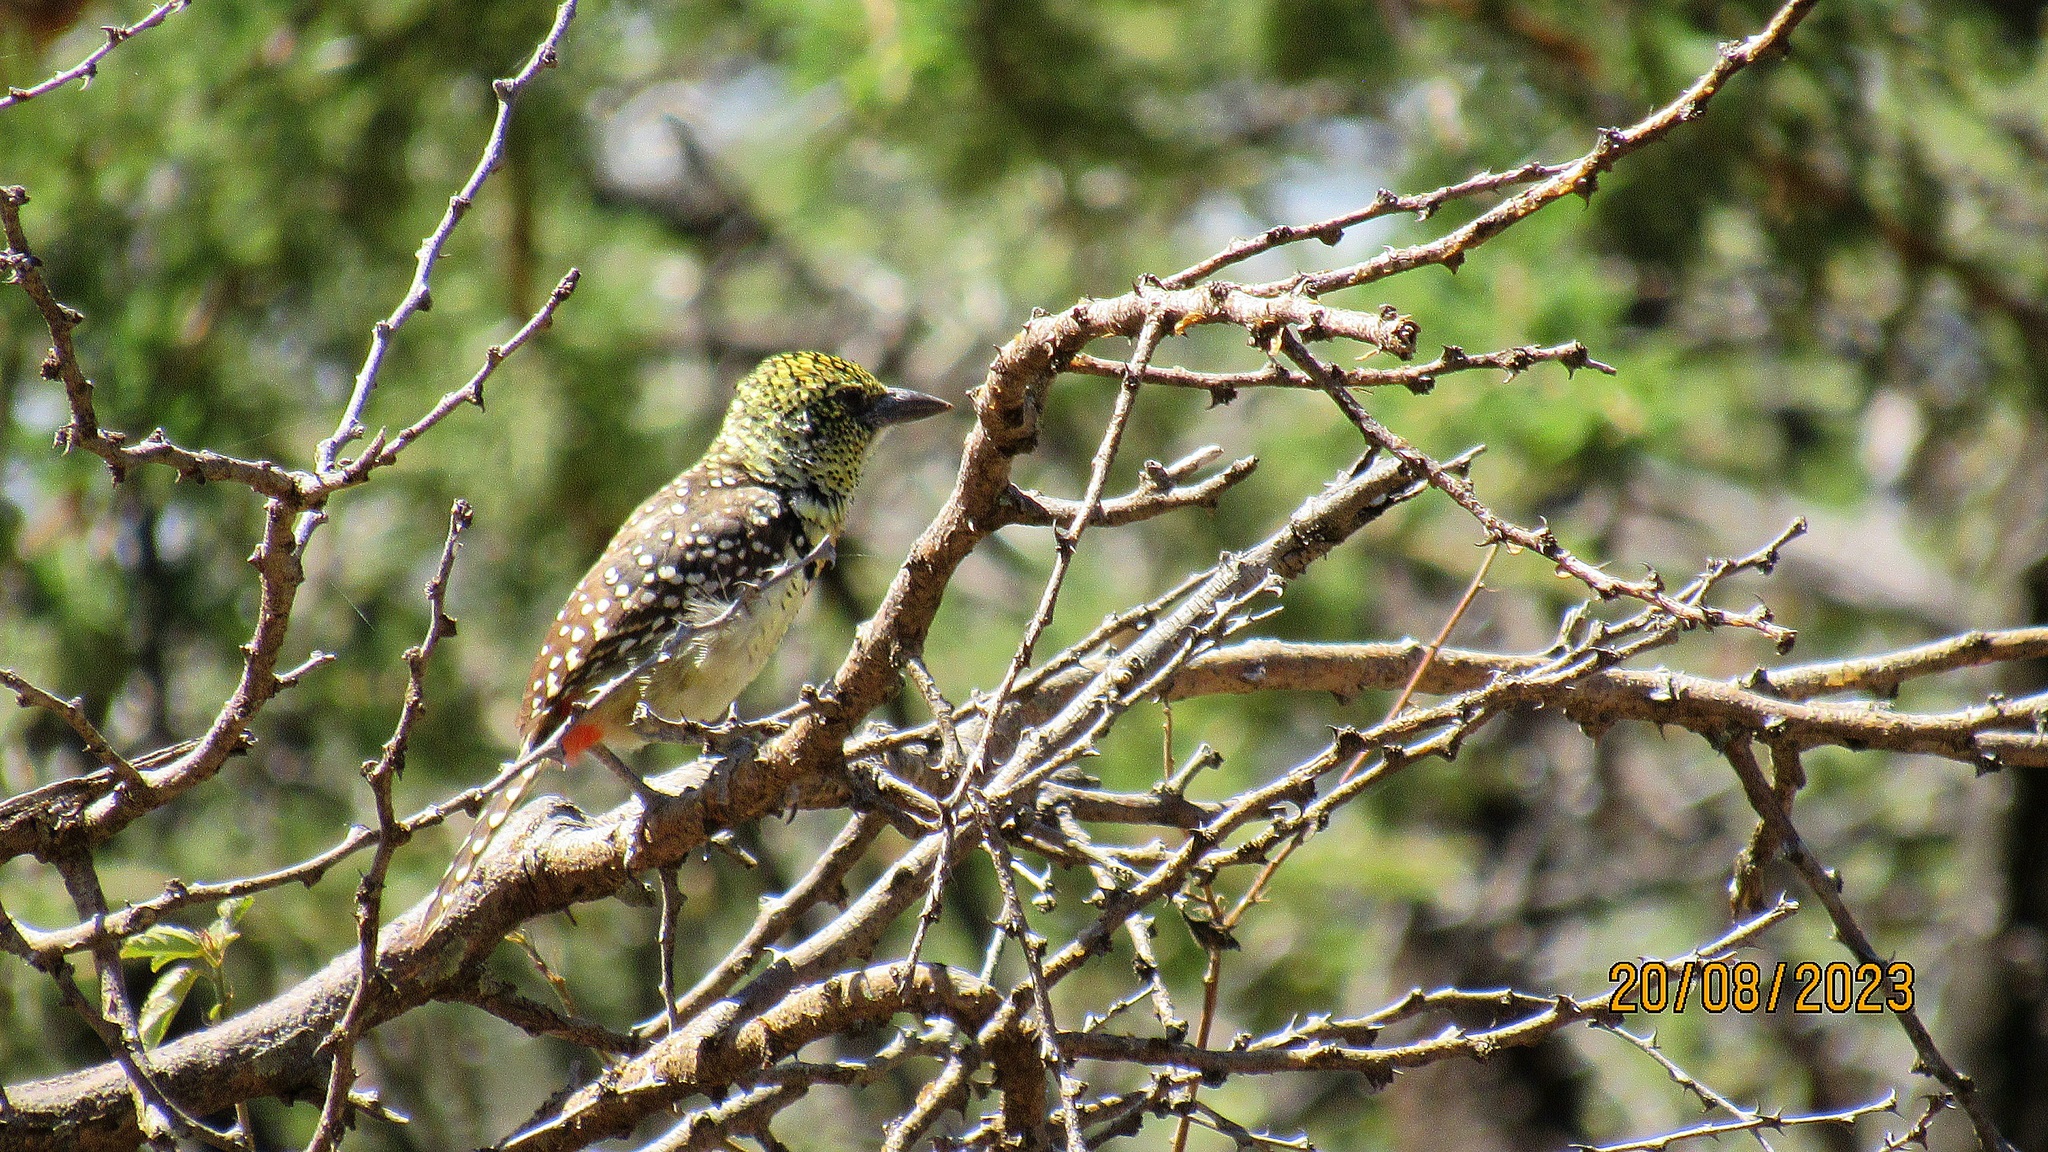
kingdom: Animalia
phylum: Chordata
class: Aves
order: Piciformes
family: Lybiidae
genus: Trachyphonus
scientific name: Trachyphonus darnaudii
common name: D'arnaud's barbet
